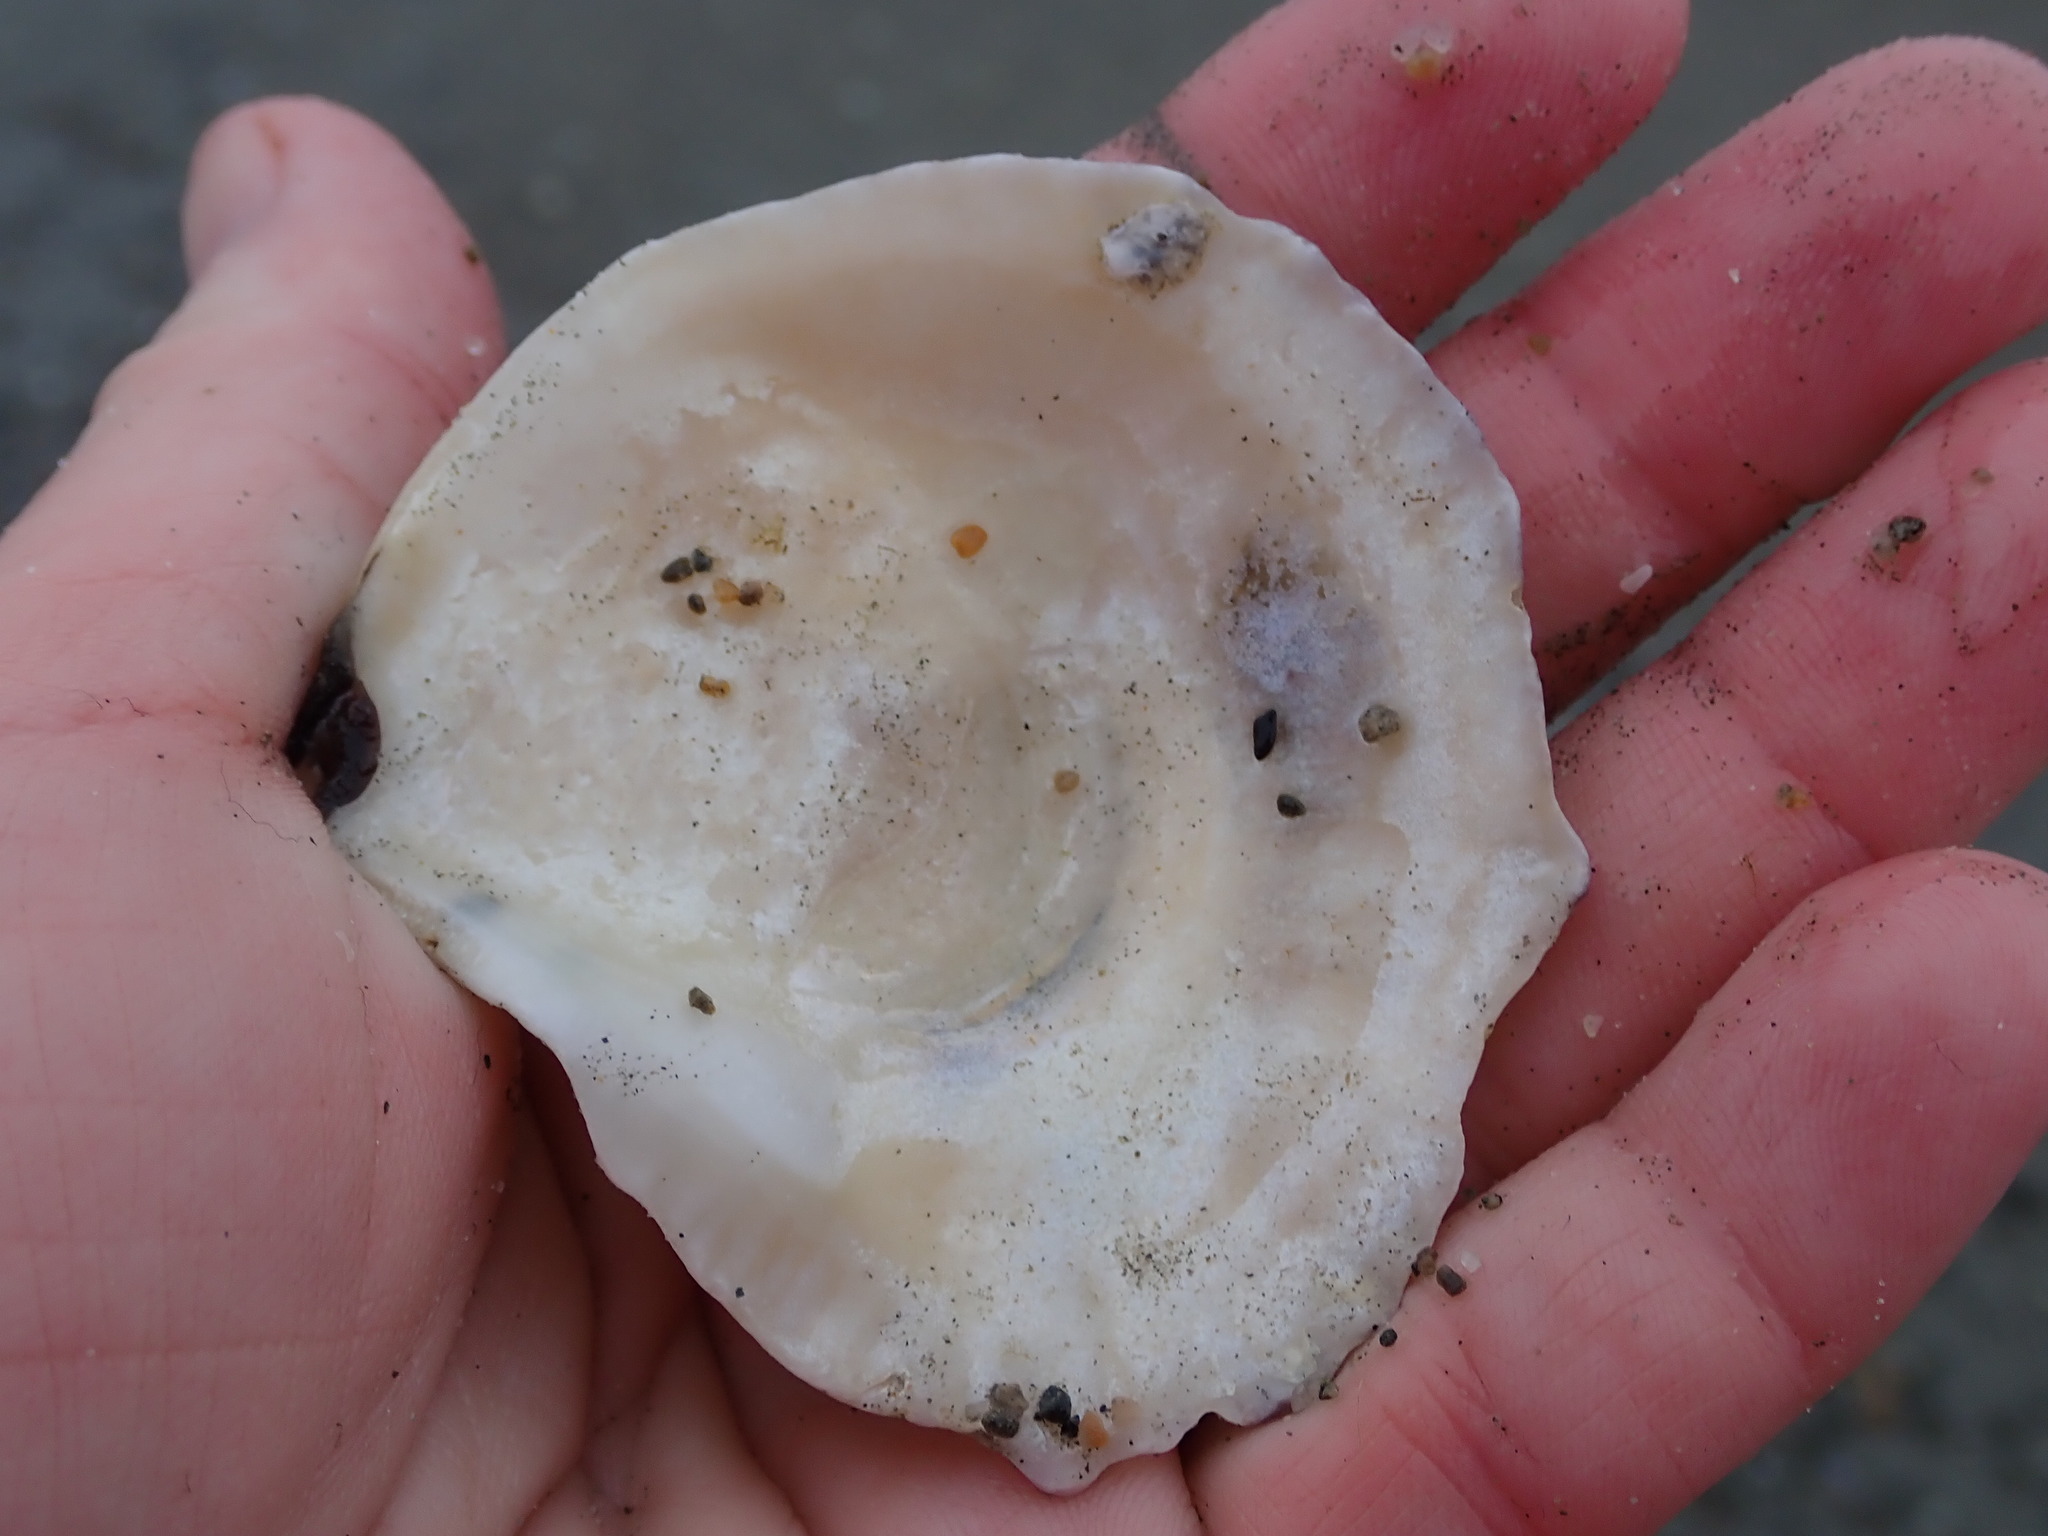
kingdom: Animalia
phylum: Mollusca
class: Bivalvia
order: Ostreida
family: Ostreidae
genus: Ostrea
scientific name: Ostrea edulis
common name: Flat oyster
